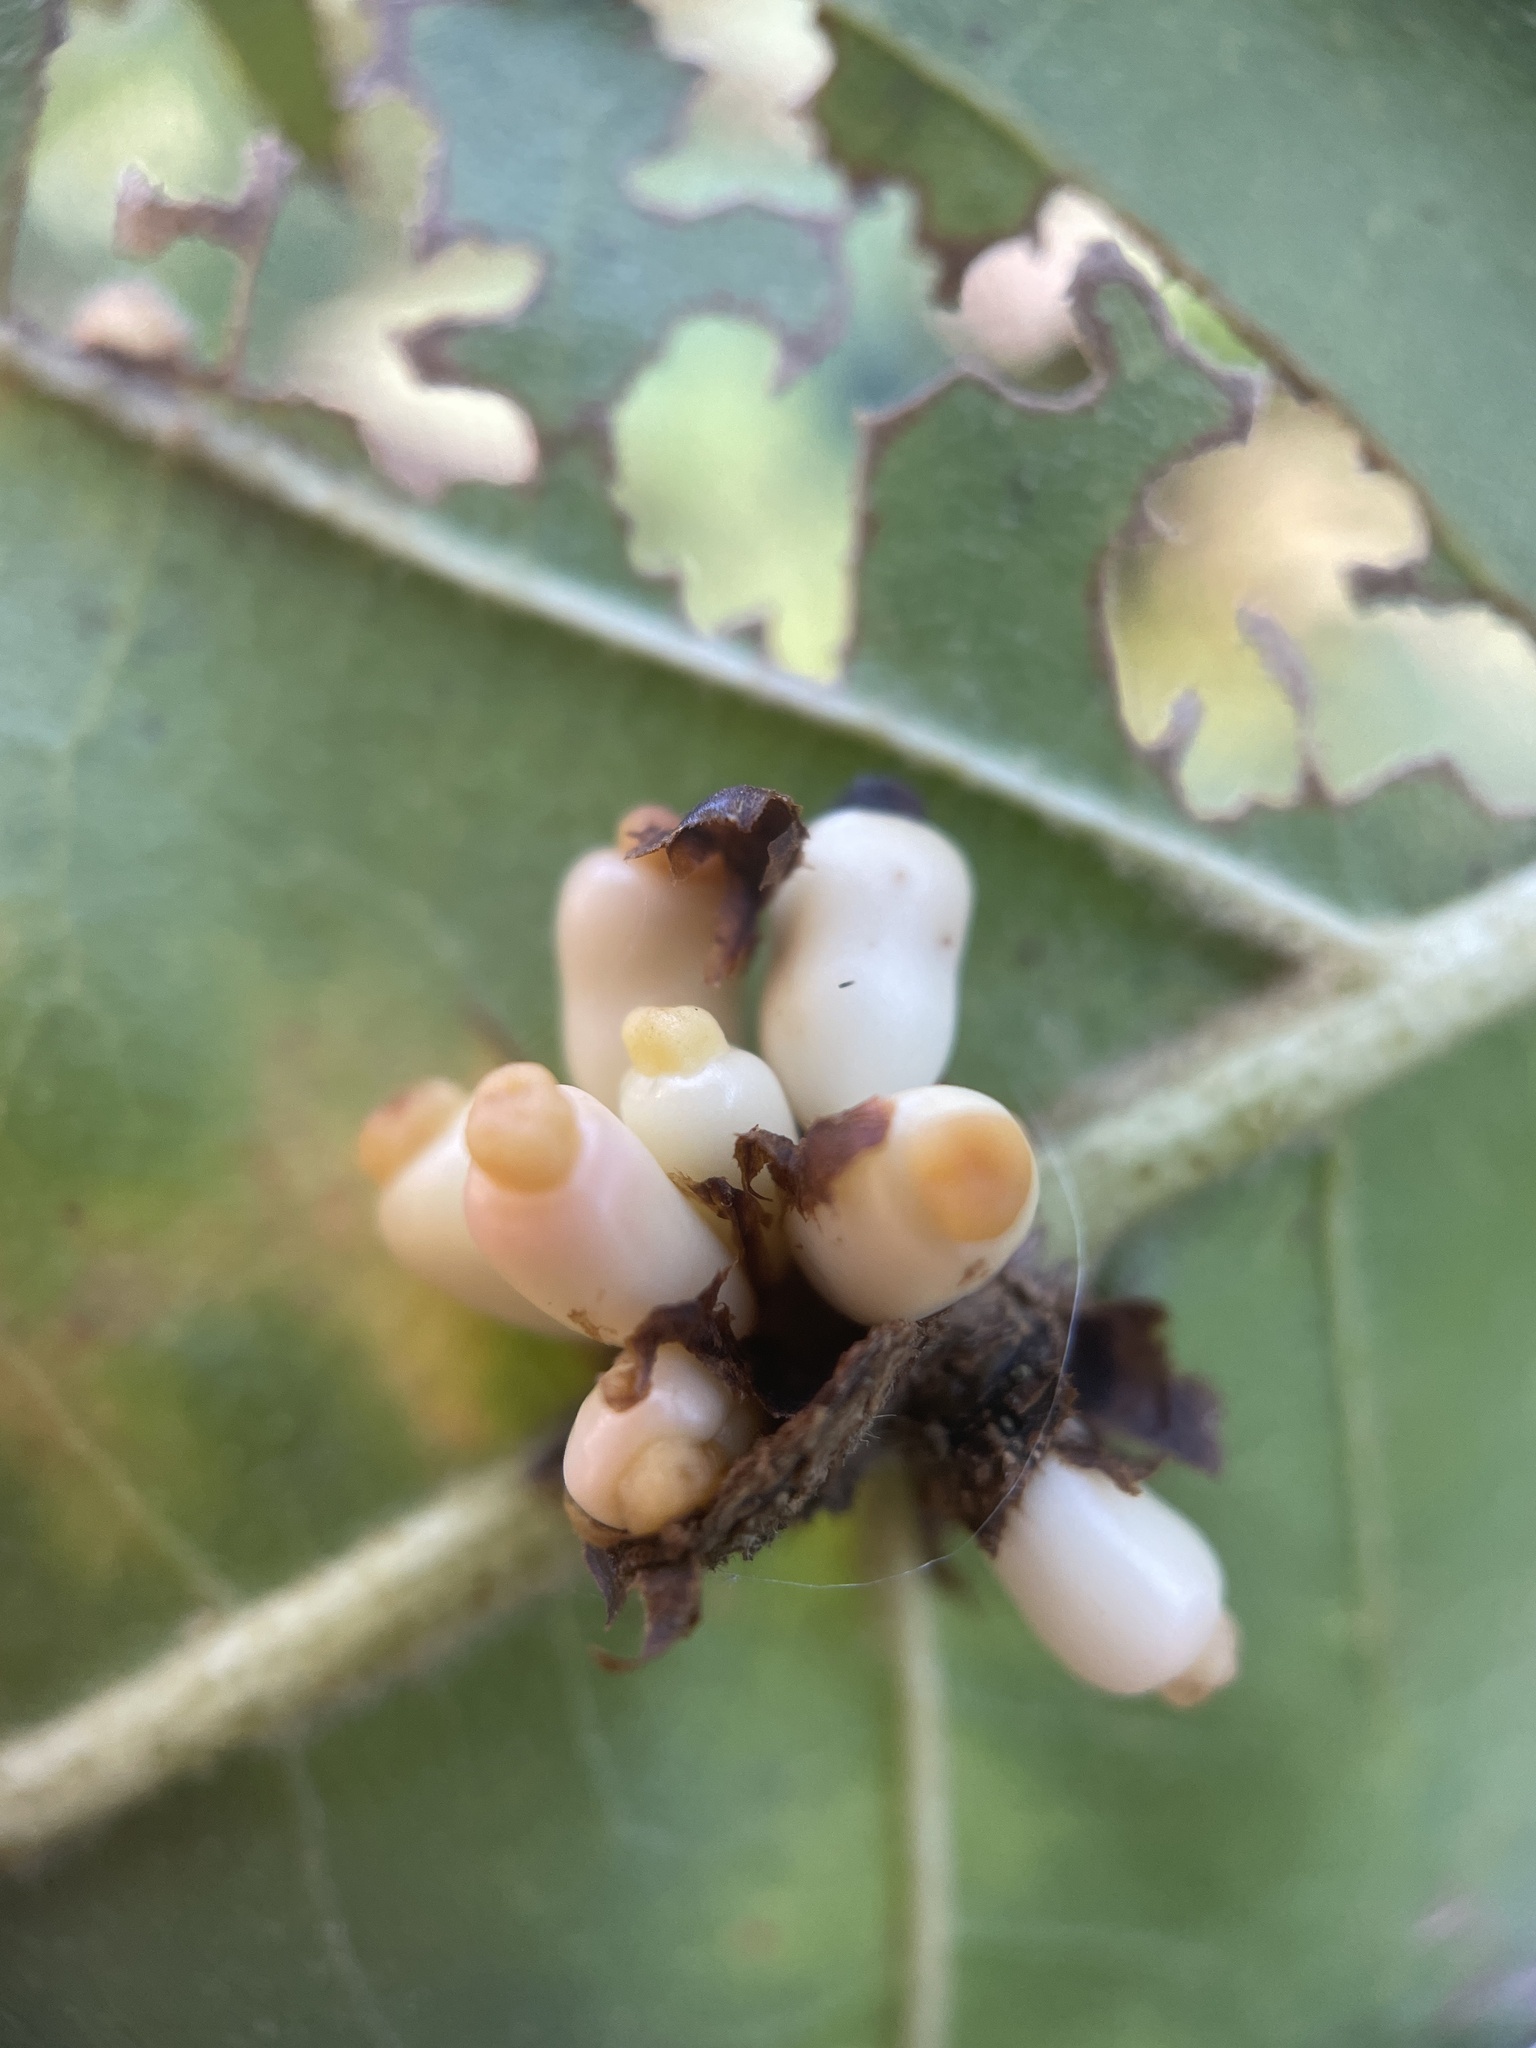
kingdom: Animalia
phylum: Arthropoda
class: Insecta
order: Hymenoptera
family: Cynipidae
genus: Kokkocynips
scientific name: Kokkocynips decidua
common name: Oak wheat gall
